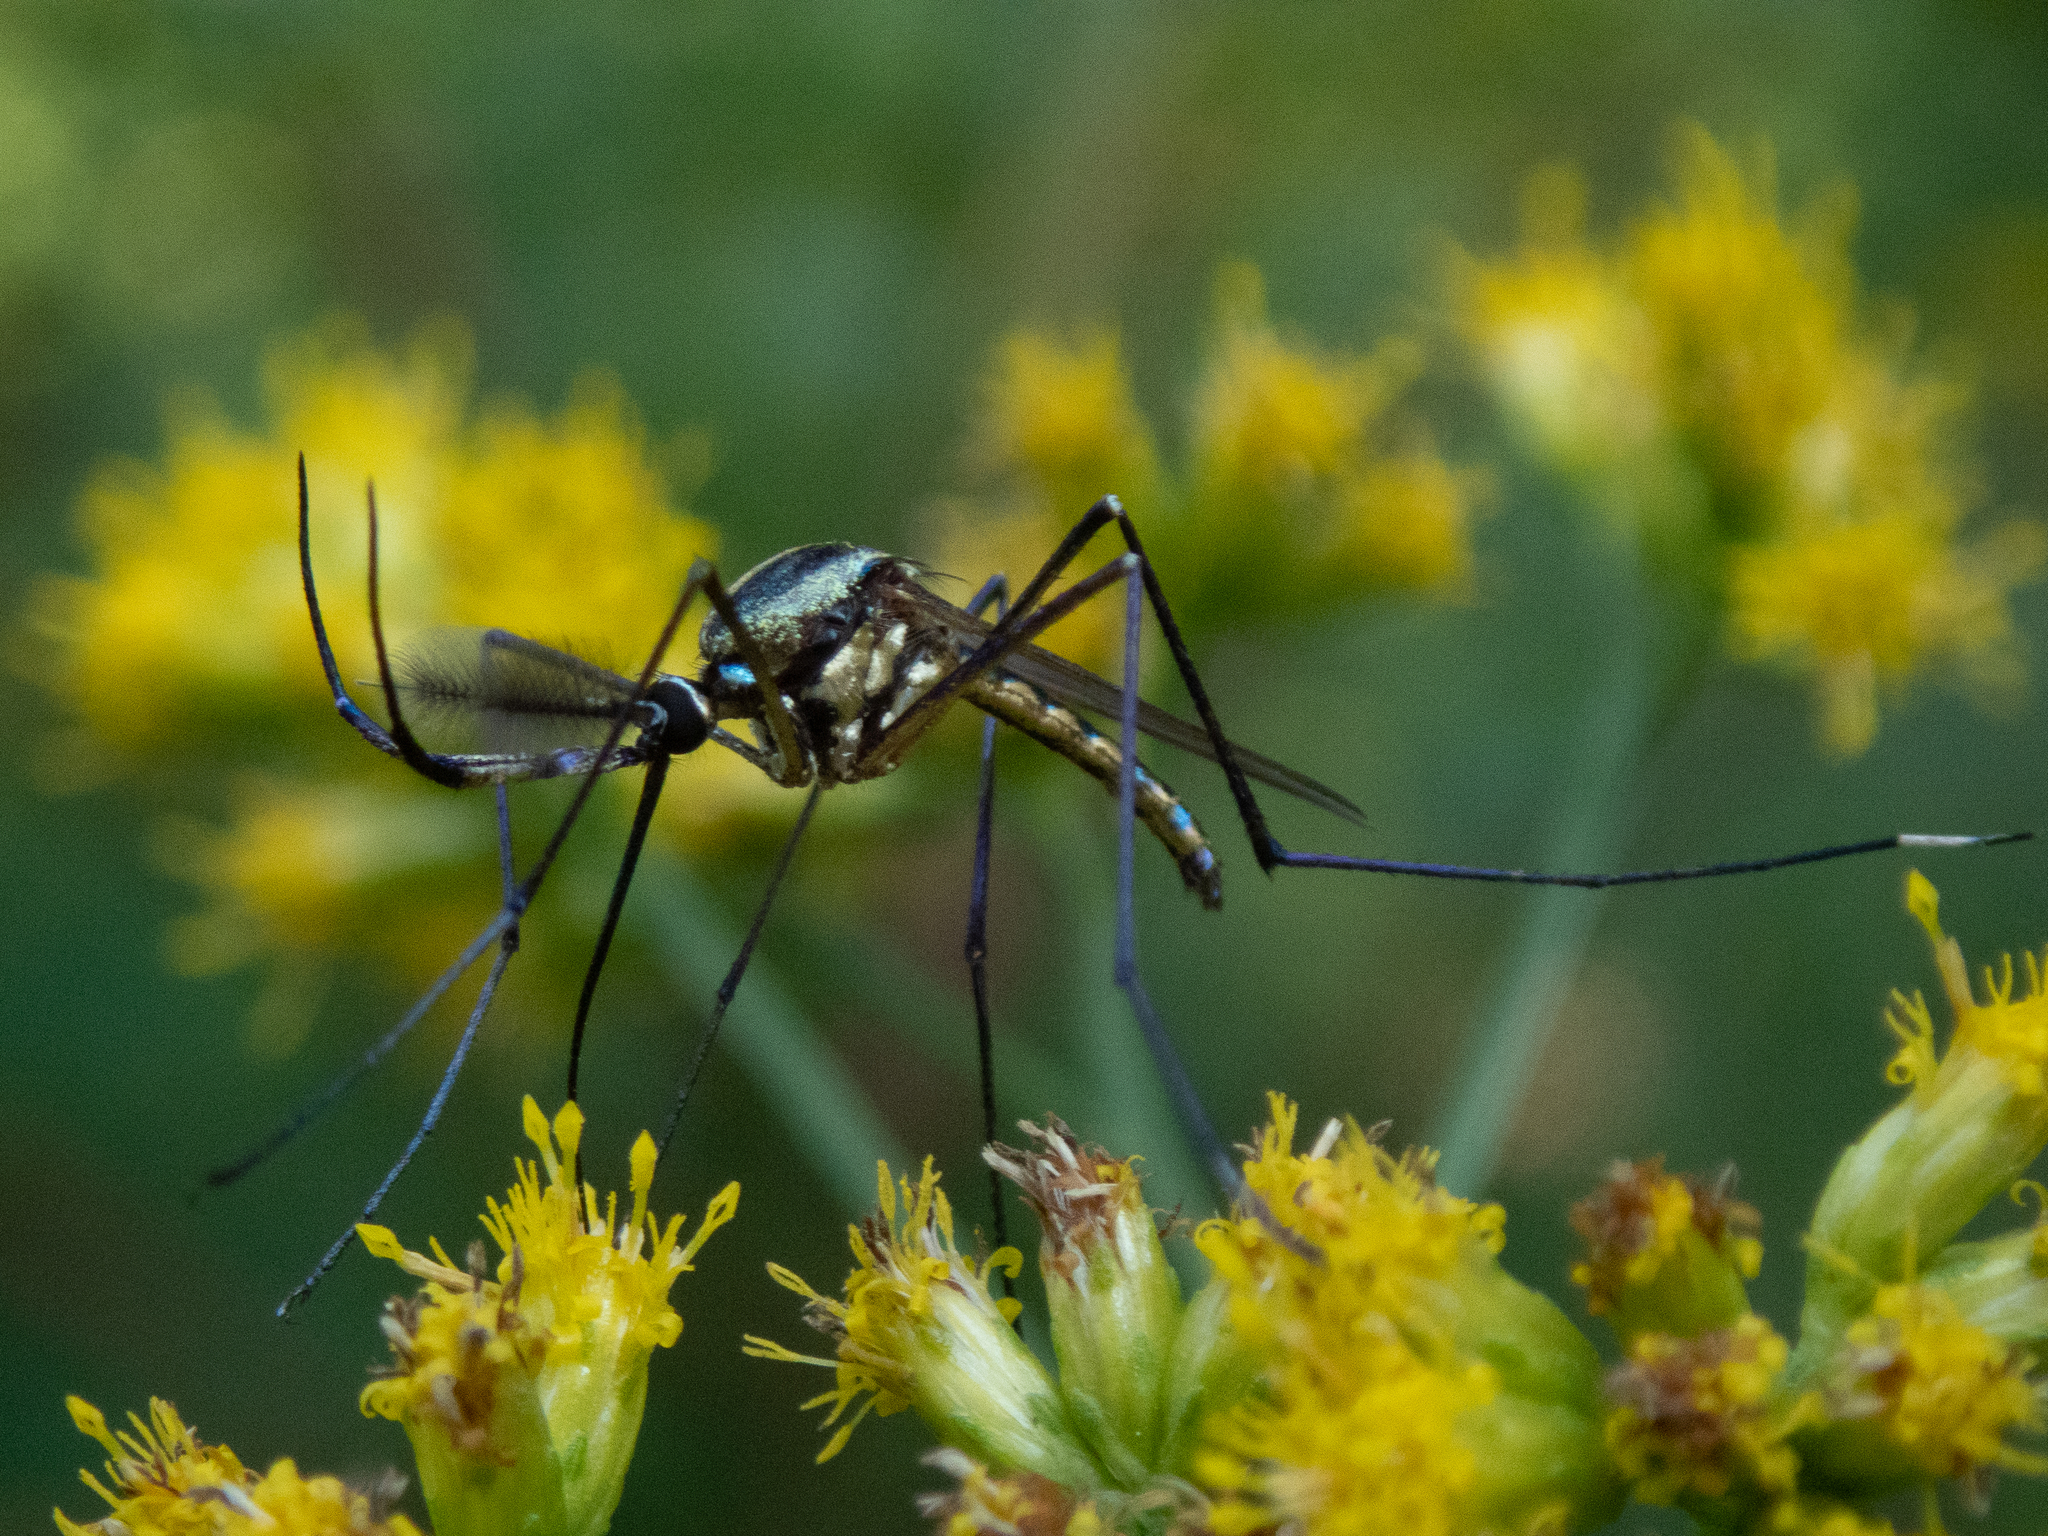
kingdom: Animalia
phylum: Arthropoda
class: Insecta
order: Diptera
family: Culicidae
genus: Toxorhynchites
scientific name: Toxorhynchites rutilus
